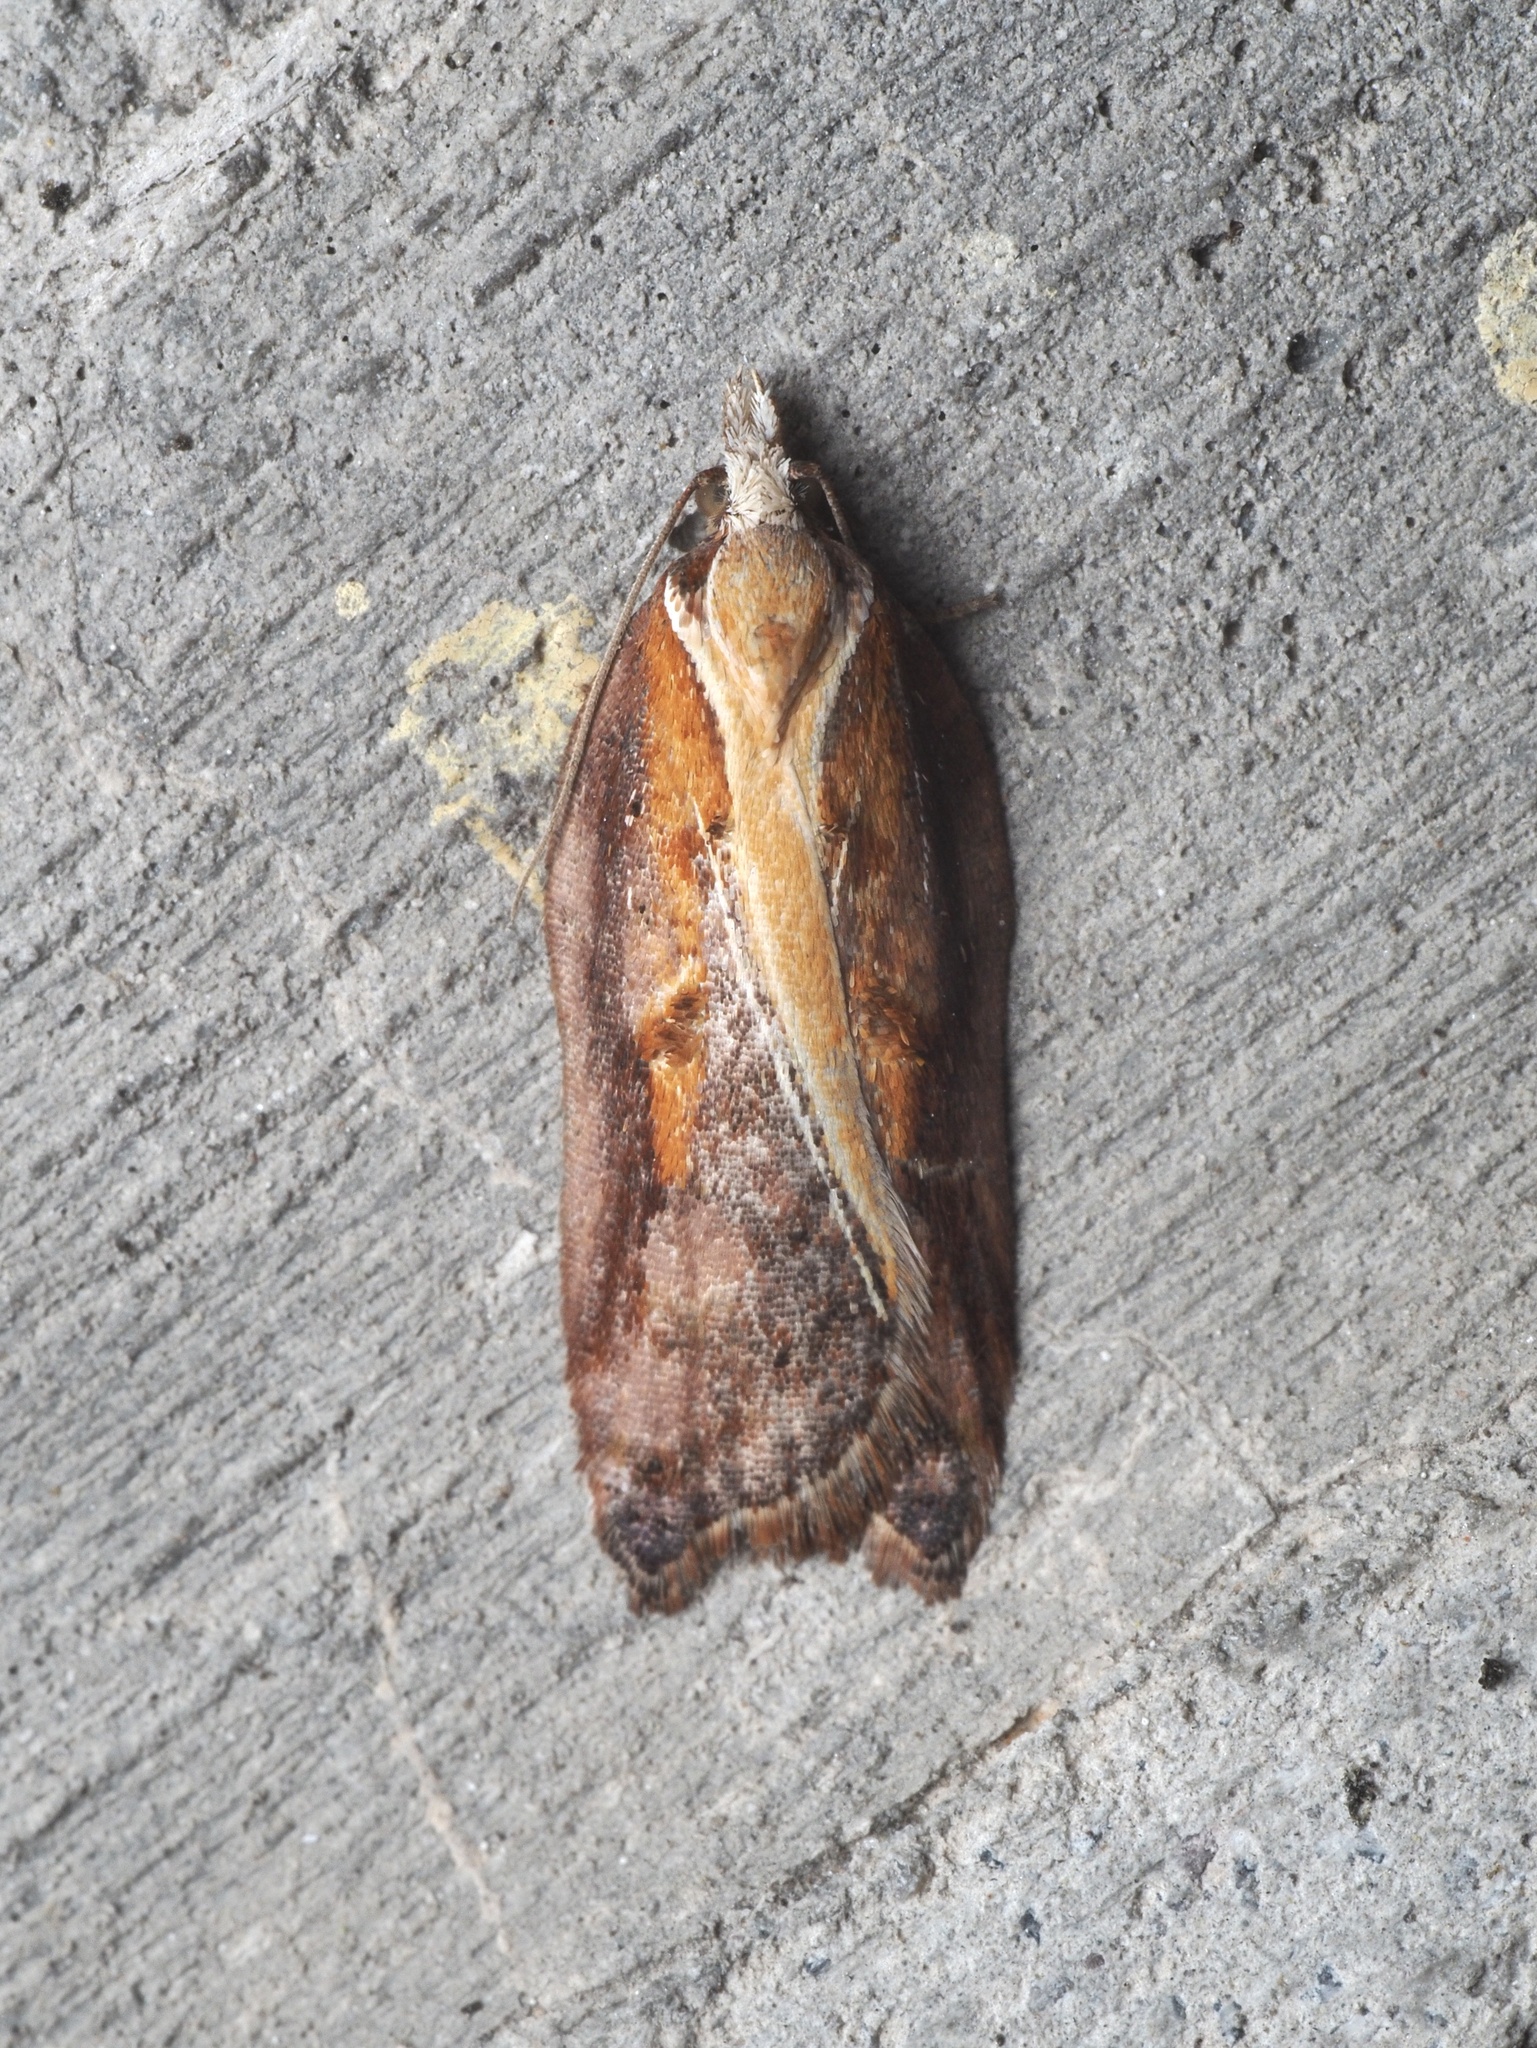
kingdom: Animalia
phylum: Arthropoda
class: Insecta
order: Lepidoptera
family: Tortricidae
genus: Acleris
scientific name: Acleris cristana
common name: Tufted button
